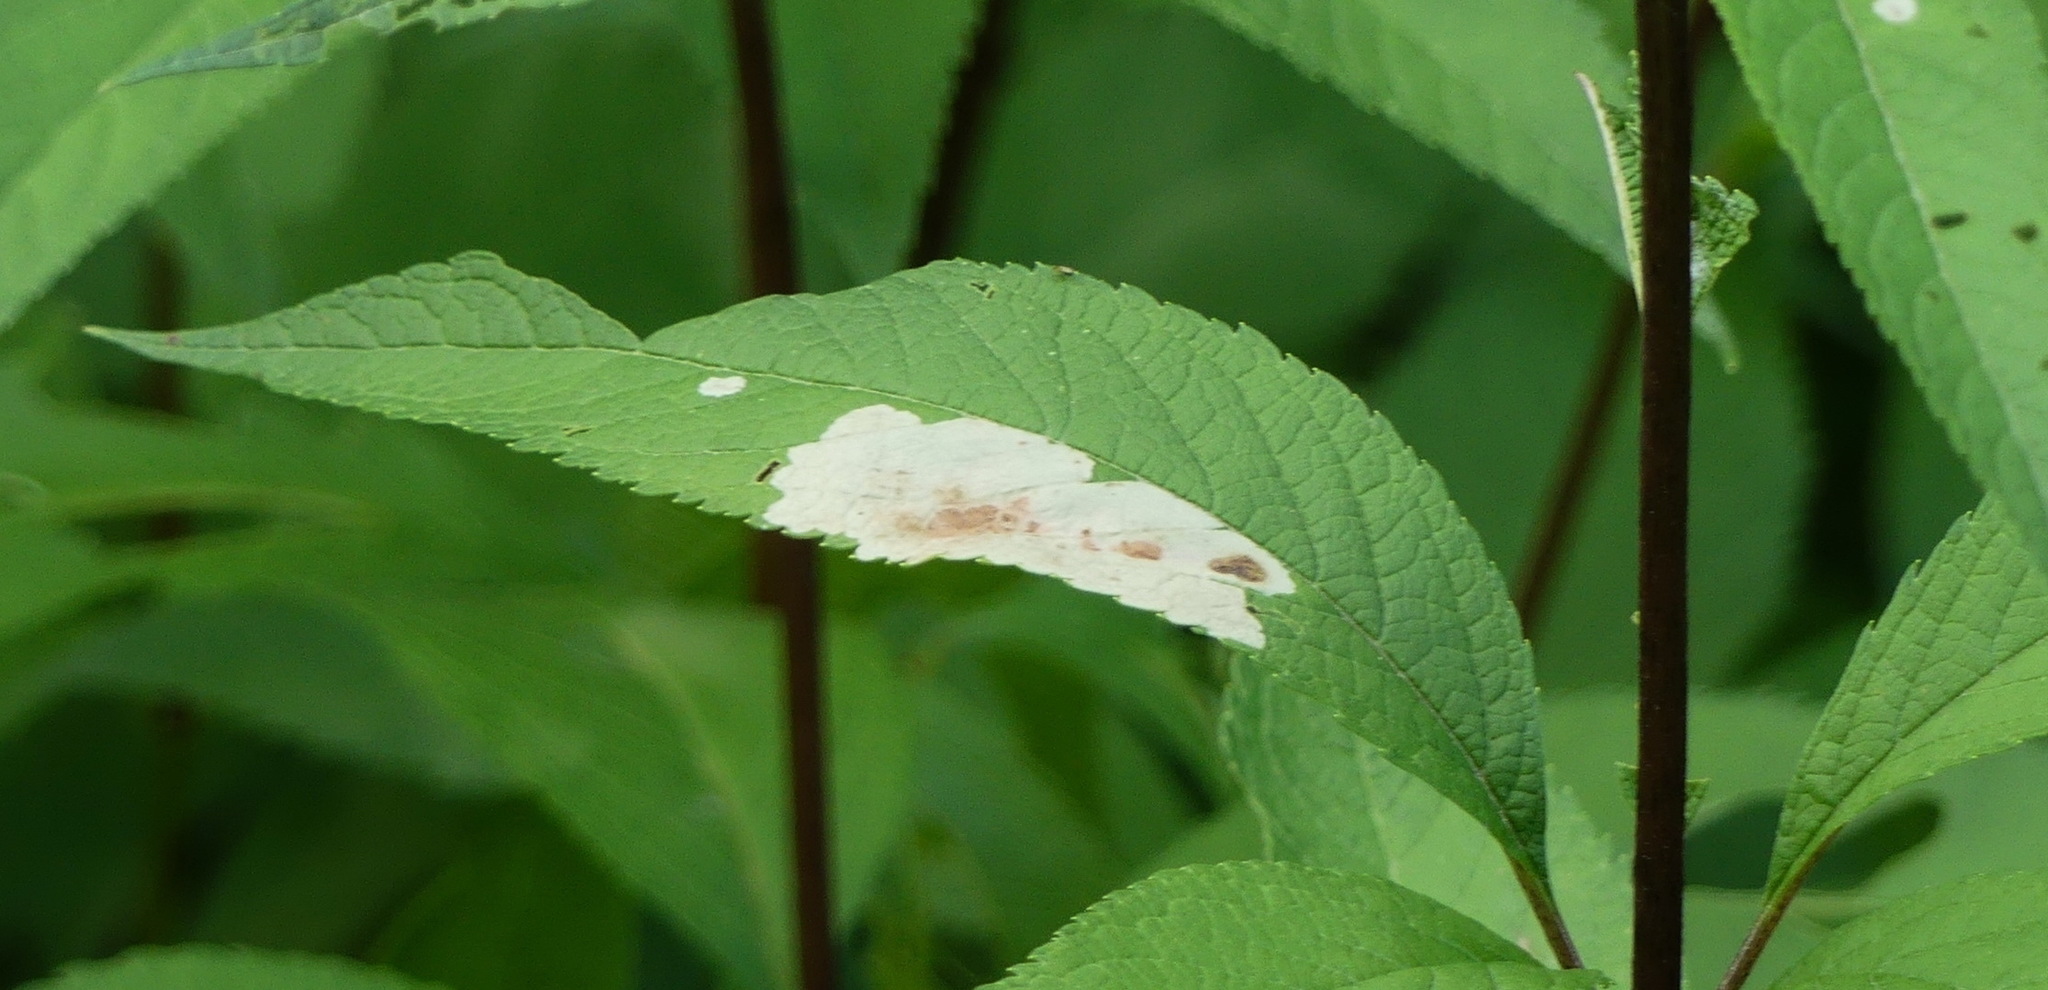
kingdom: Animalia
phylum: Arthropoda
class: Insecta
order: Diptera
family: Agromyzidae
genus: Calycomyza
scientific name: Calycomyza flavinotum
